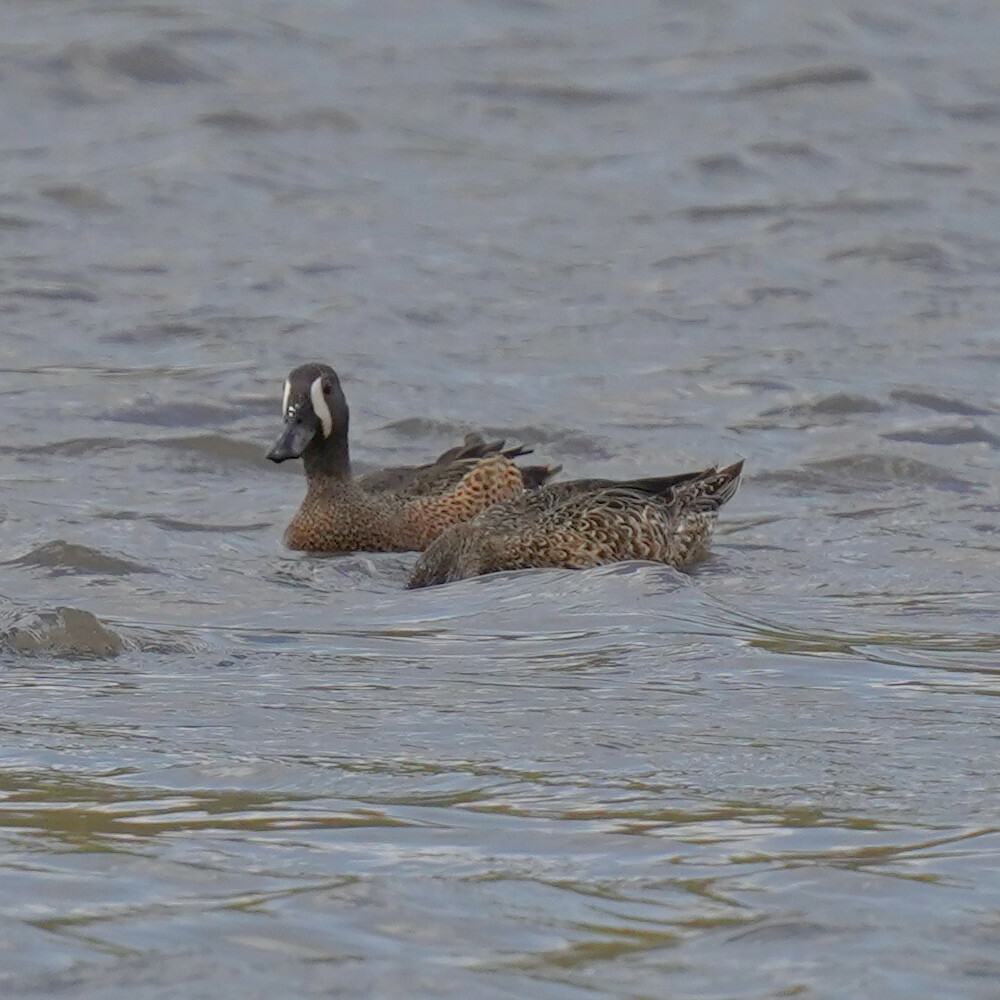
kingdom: Animalia
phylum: Chordata
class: Aves
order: Anseriformes
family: Anatidae
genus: Spatula
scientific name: Spatula discors
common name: Blue-winged teal
